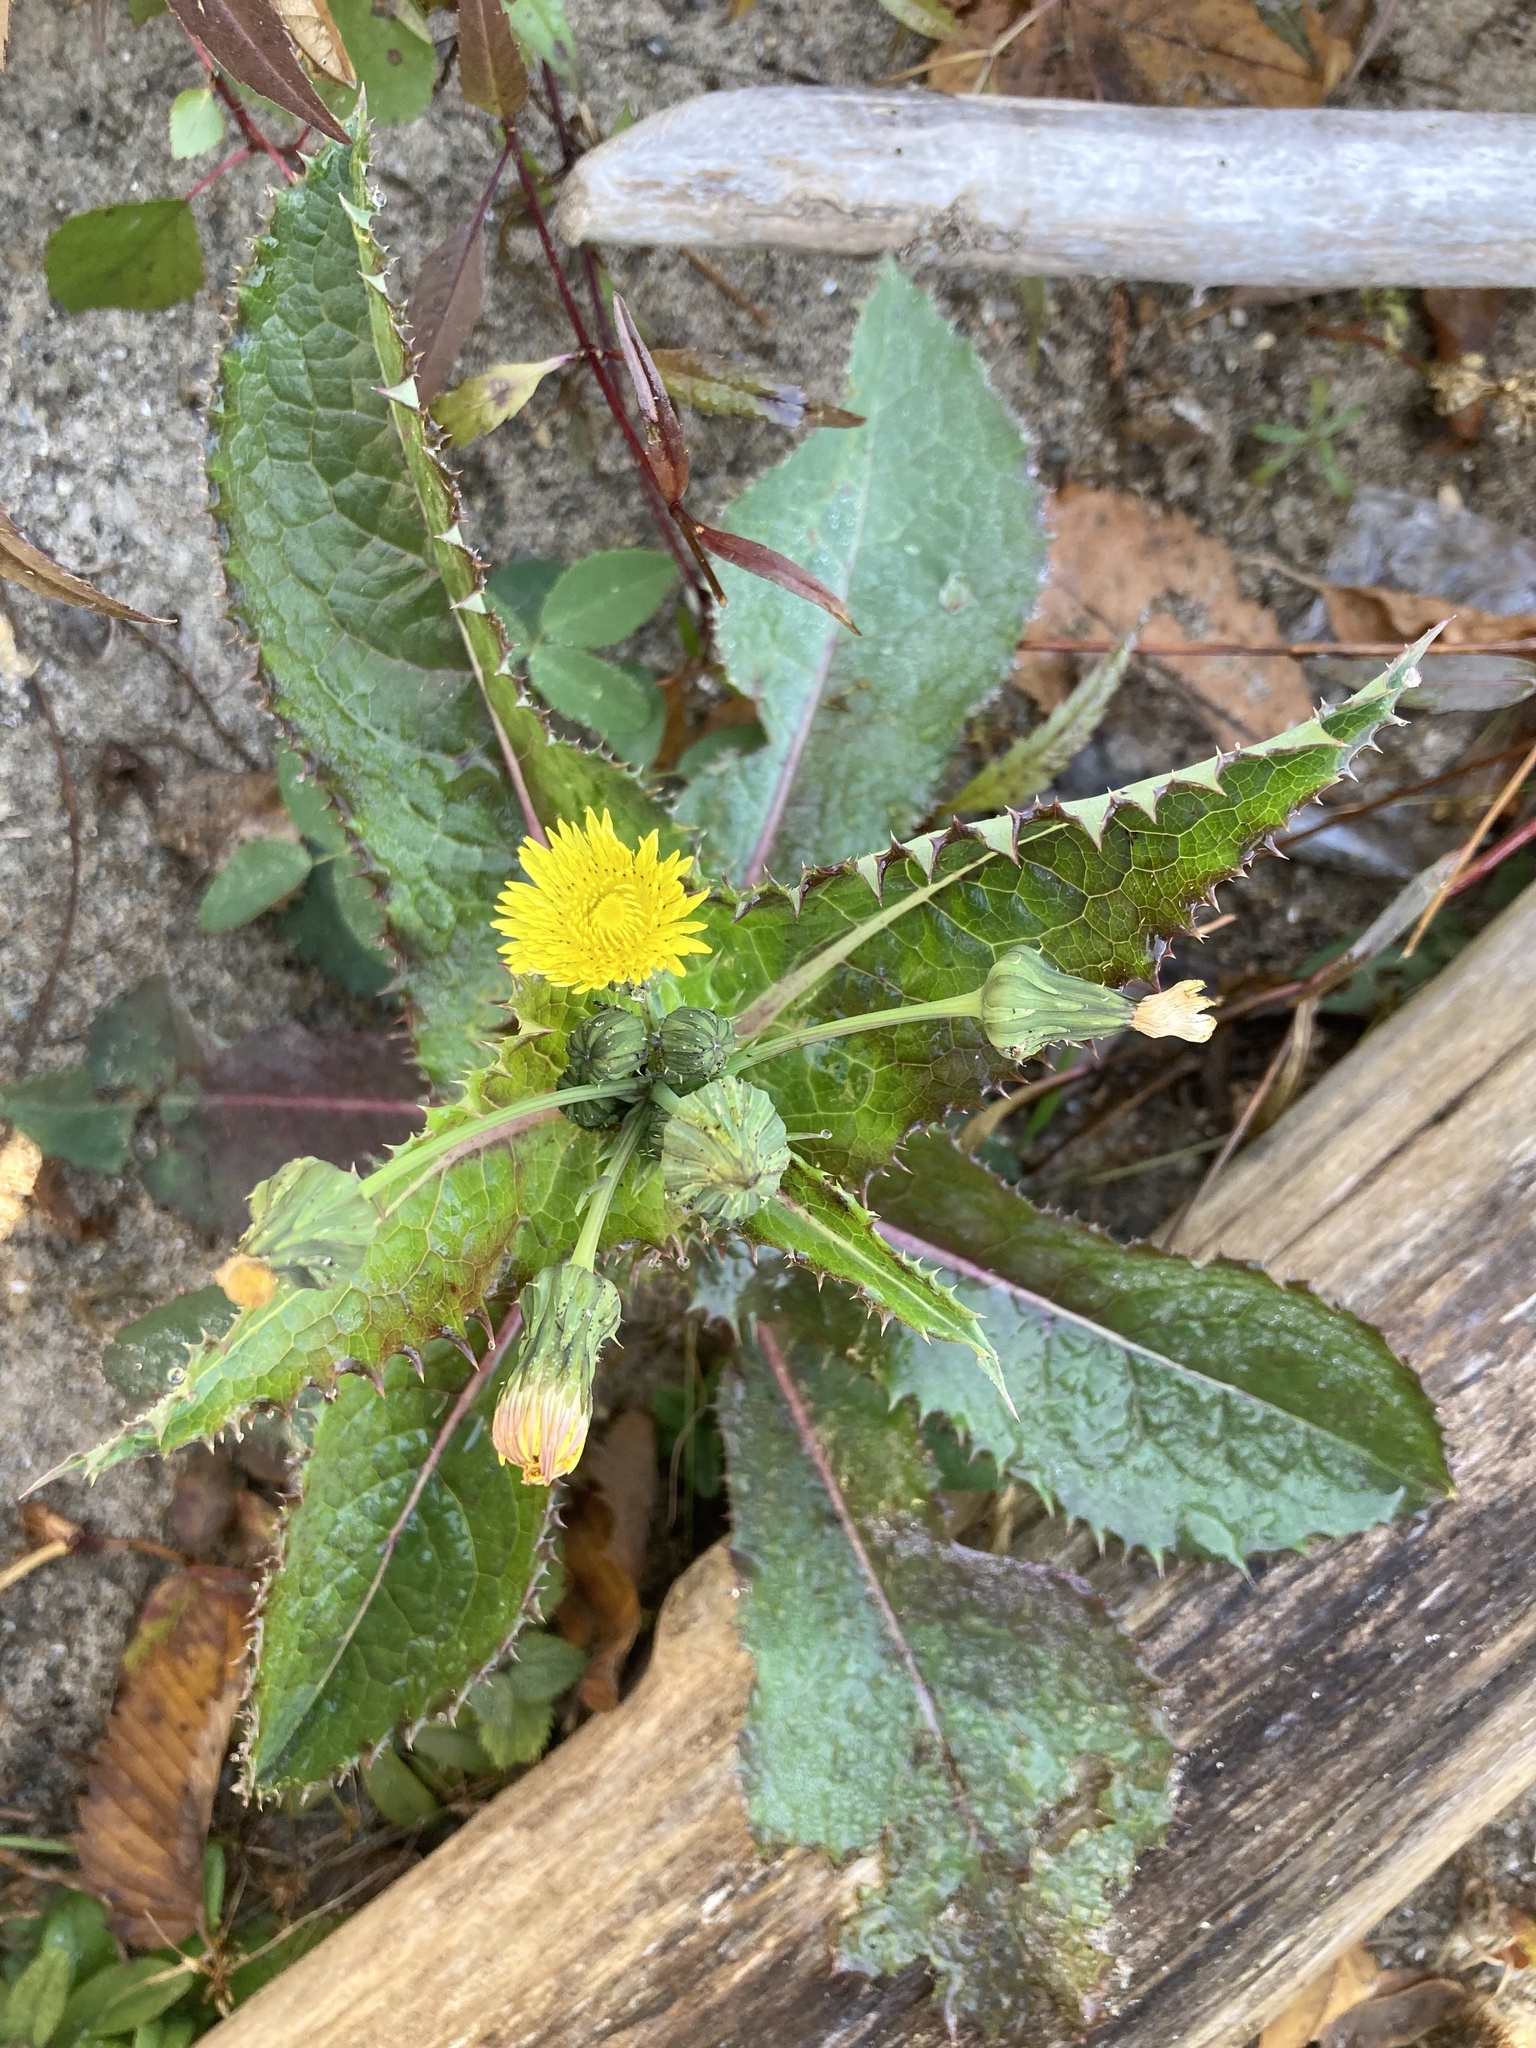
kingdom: Plantae
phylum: Tracheophyta
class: Magnoliopsida
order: Asterales
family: Asteraceae
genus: Sonchus
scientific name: Sonchus asper
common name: Prickly sow-thistle
